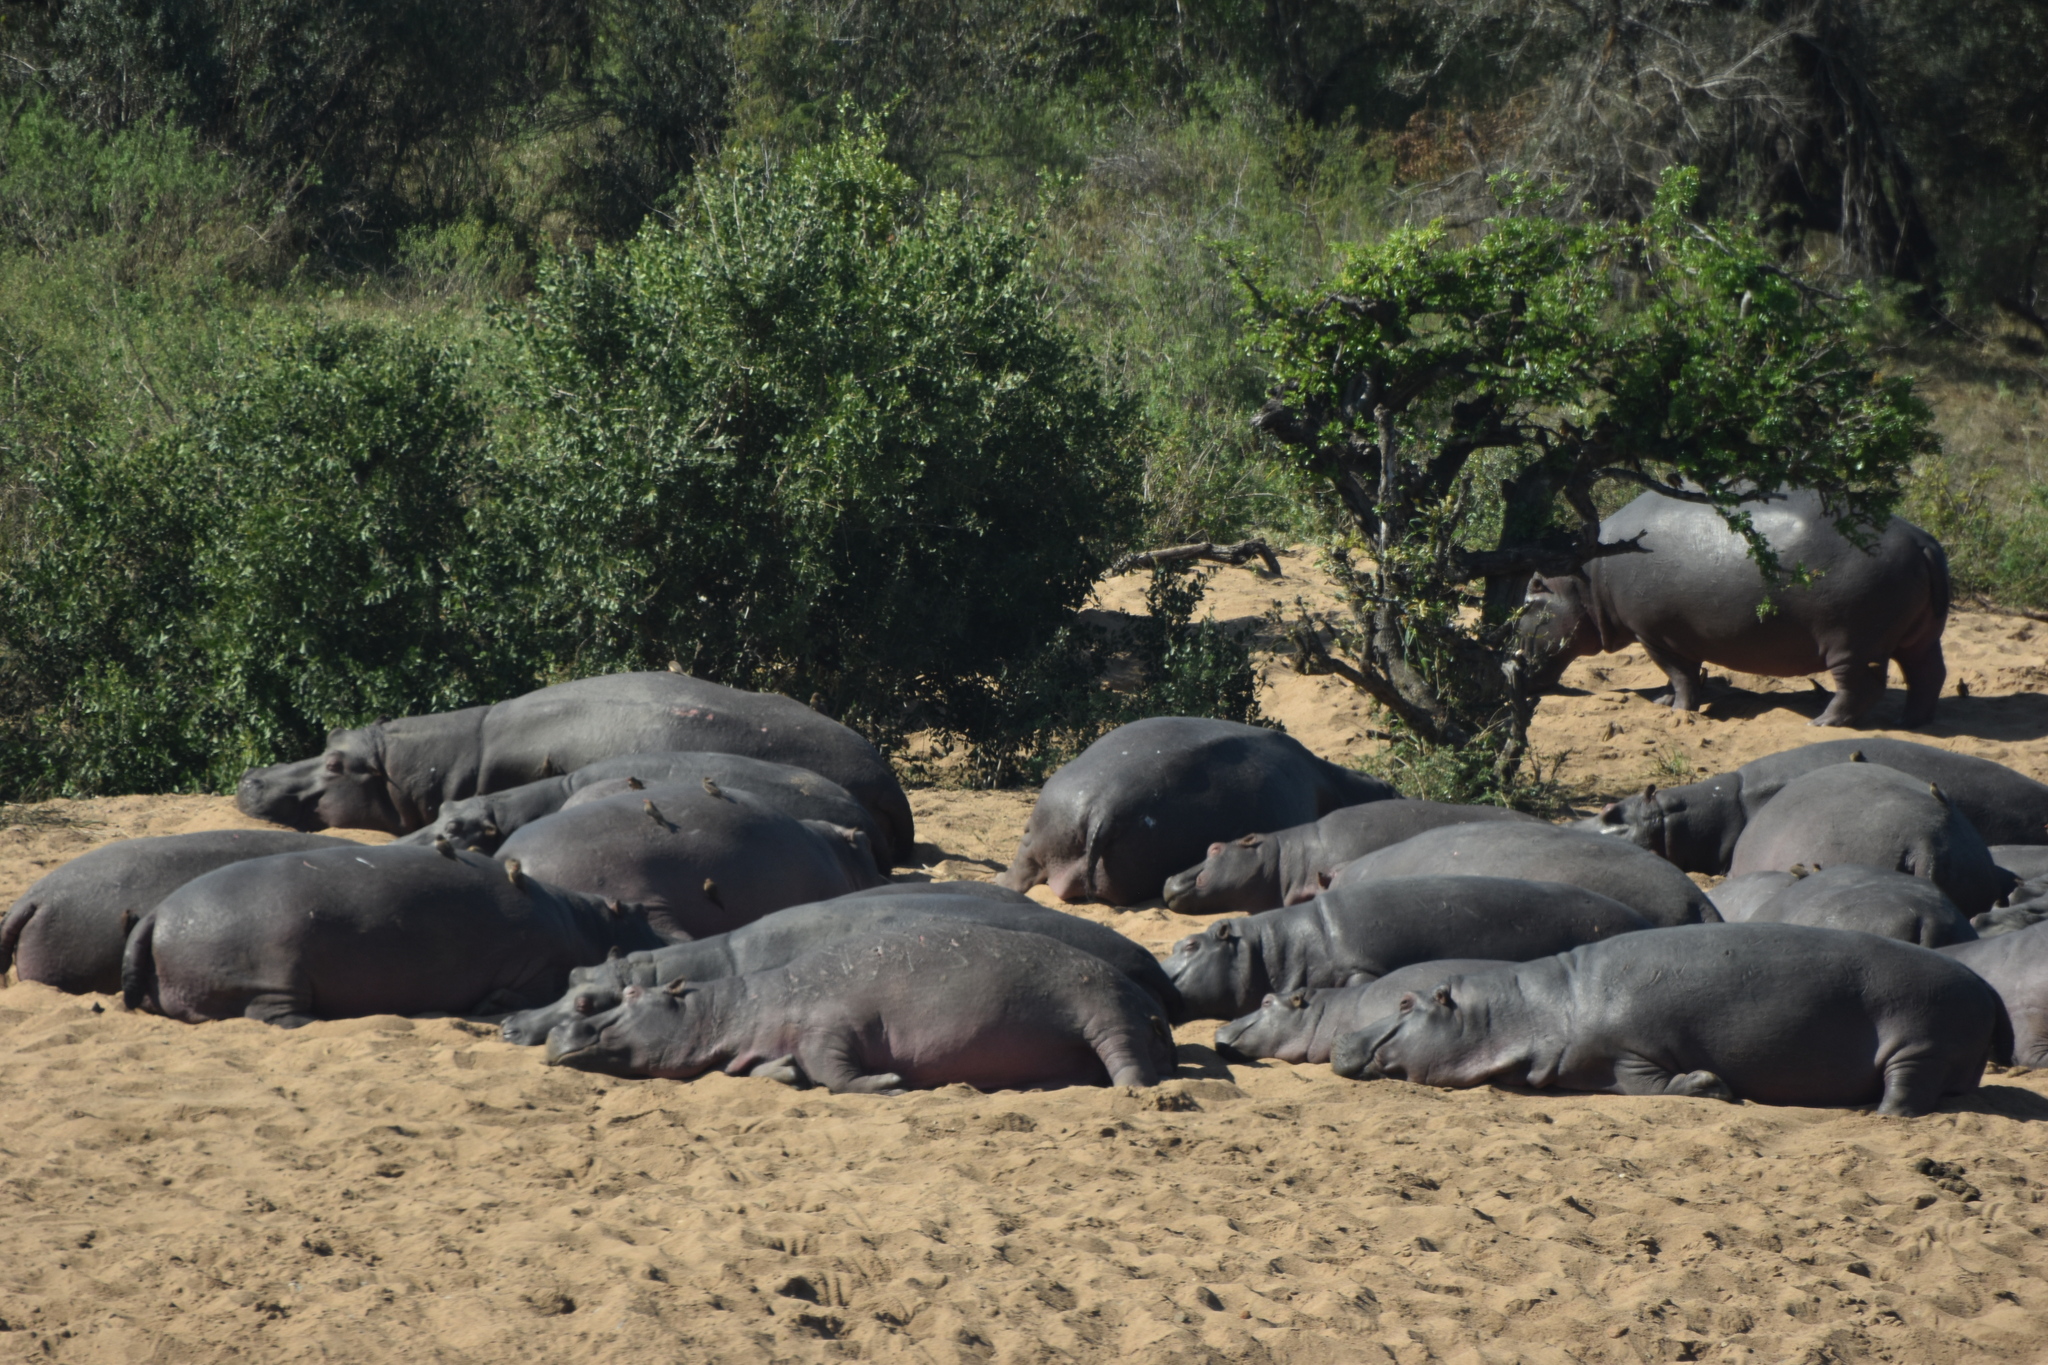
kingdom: Animalia
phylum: Chordata
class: Mammalia
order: Artiodactyla
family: Hippopotamidae
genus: Hippopotamus
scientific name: Hippopotamus amphibius
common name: Common hippopotamus
